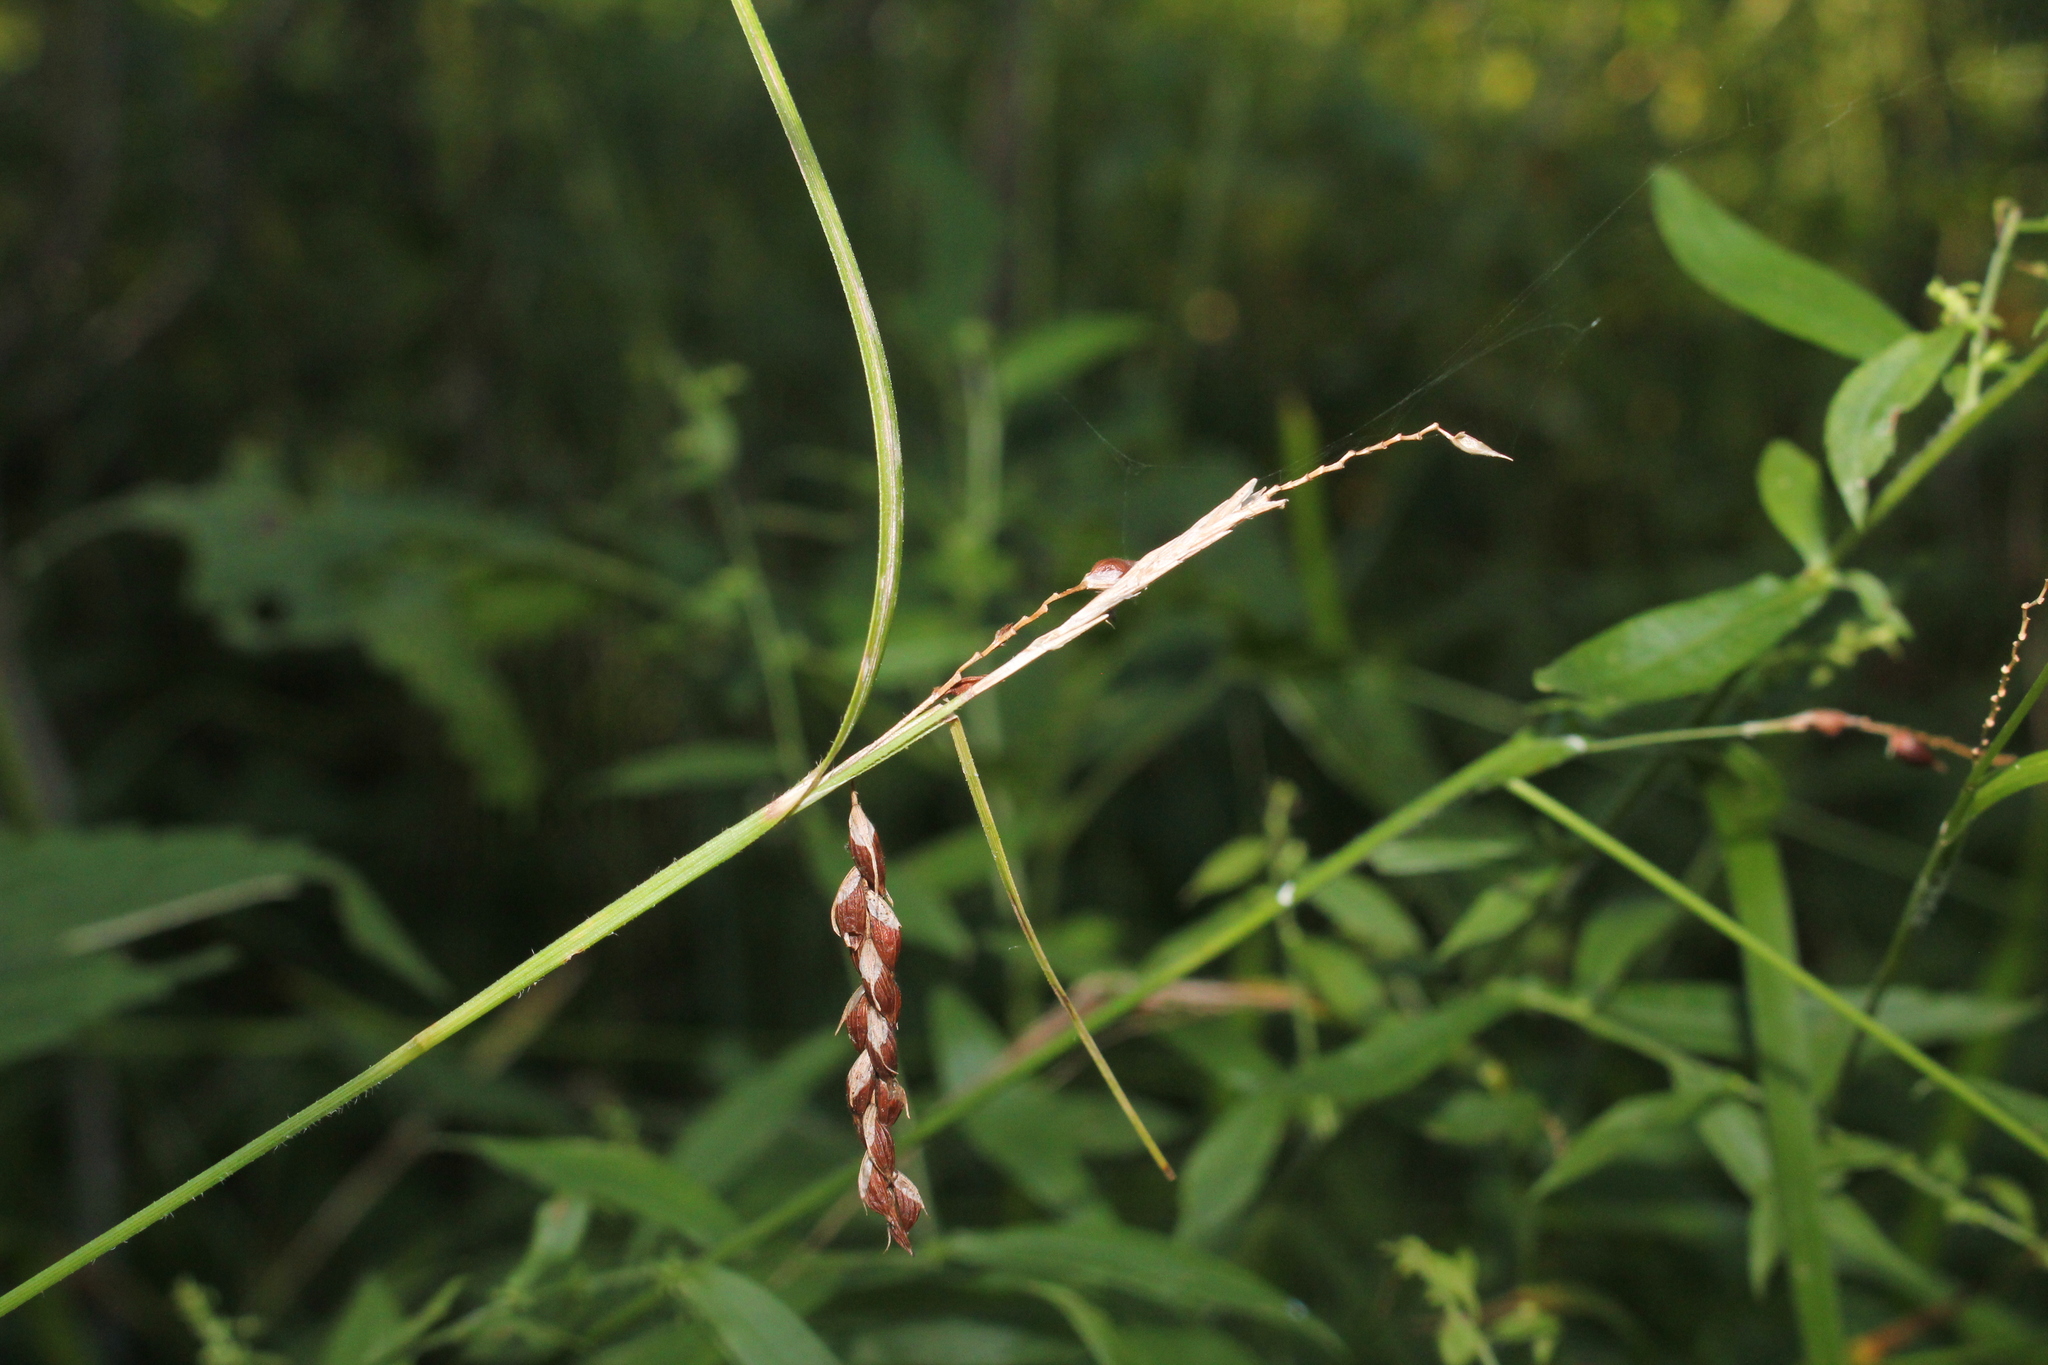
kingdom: Plantae
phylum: Tracheophyta
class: Liliopsida
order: Poales
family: Cyperaceae
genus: Carex
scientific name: Carex davisii
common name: Davis' sedge
